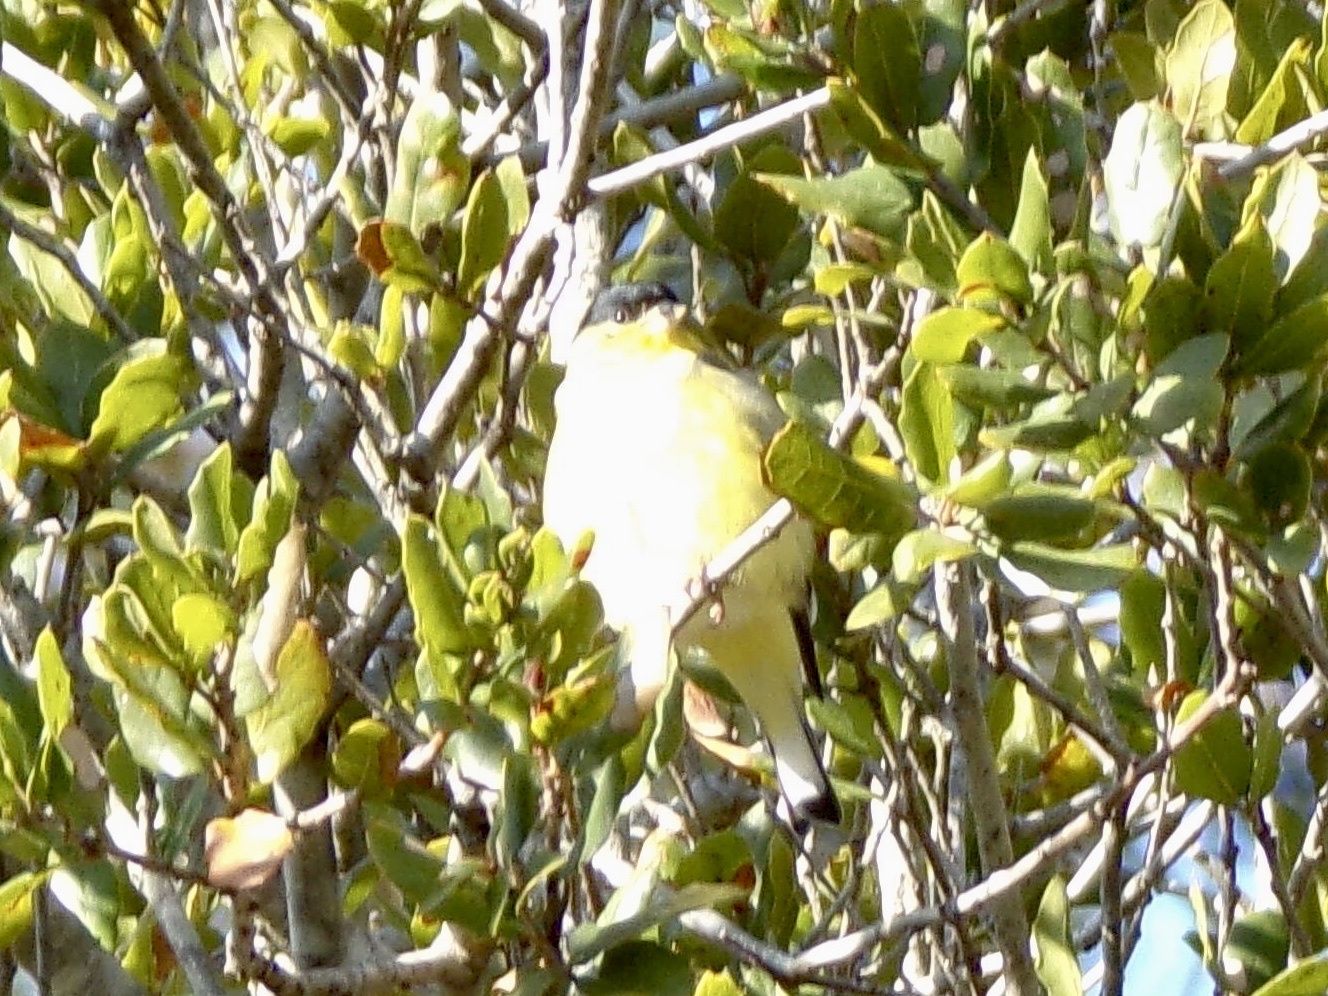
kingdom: Animalia
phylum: Chordata
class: Aves
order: Passeriformes
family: Fringillidae
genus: Spinus
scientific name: Spinus psaltria
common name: Lesser goldfinch
